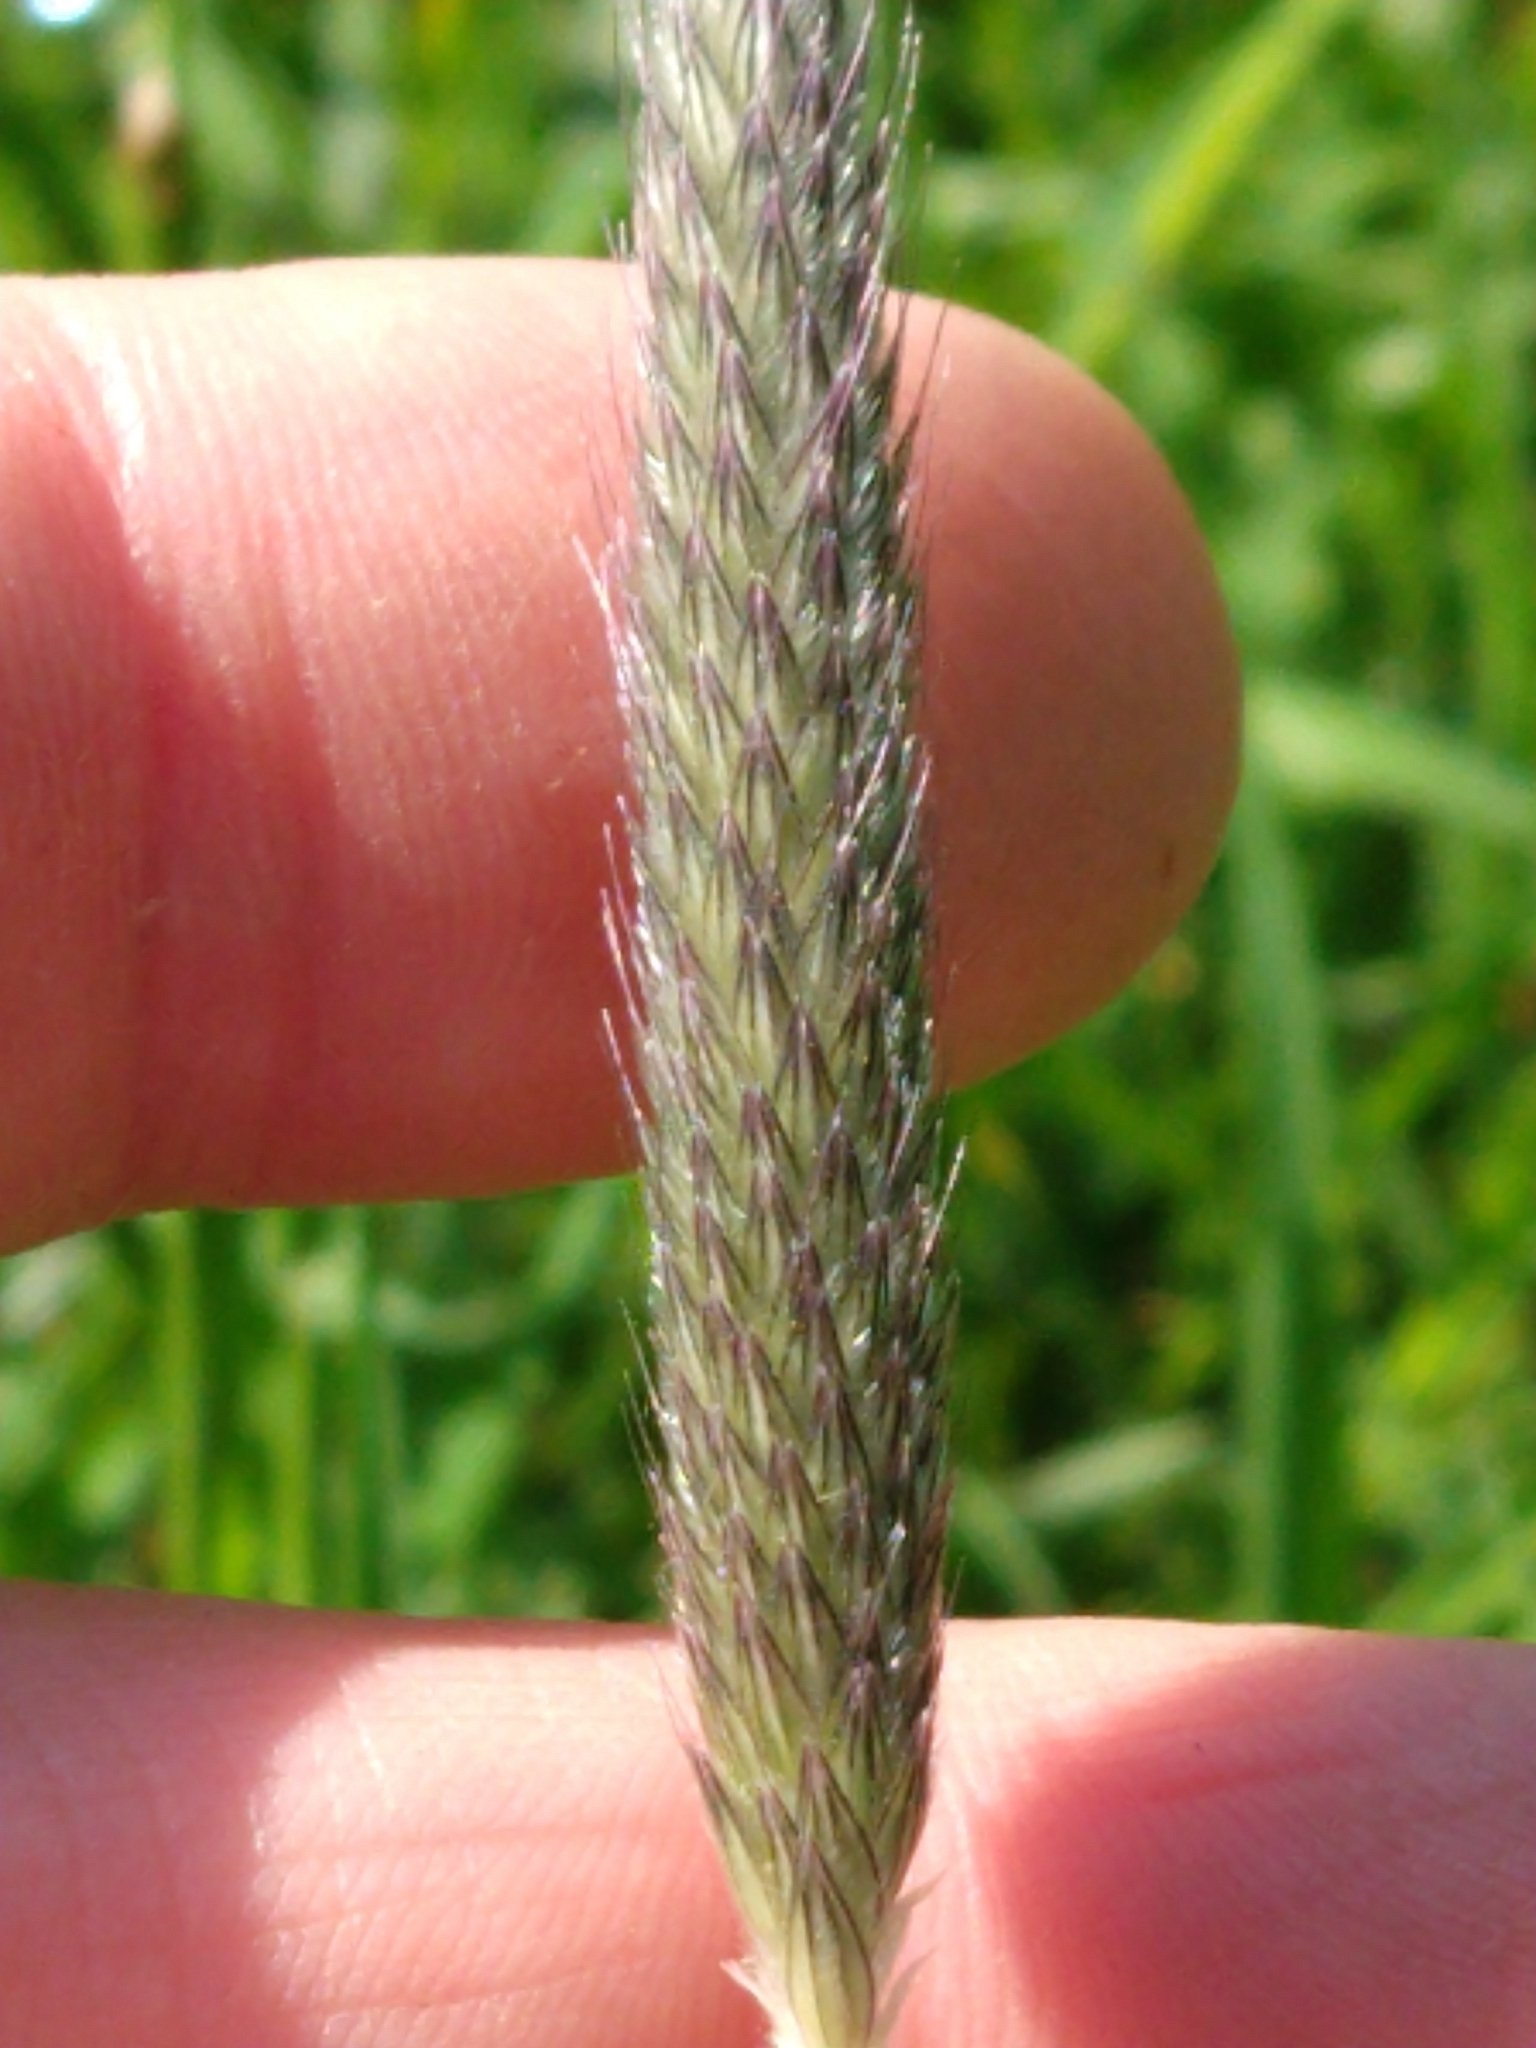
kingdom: Plantae
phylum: Tracheophyta
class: Liliopsida
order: Poales
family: Poaceae
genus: Alopecurus
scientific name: Alopecurus pratensis
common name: Meadow foxtail
